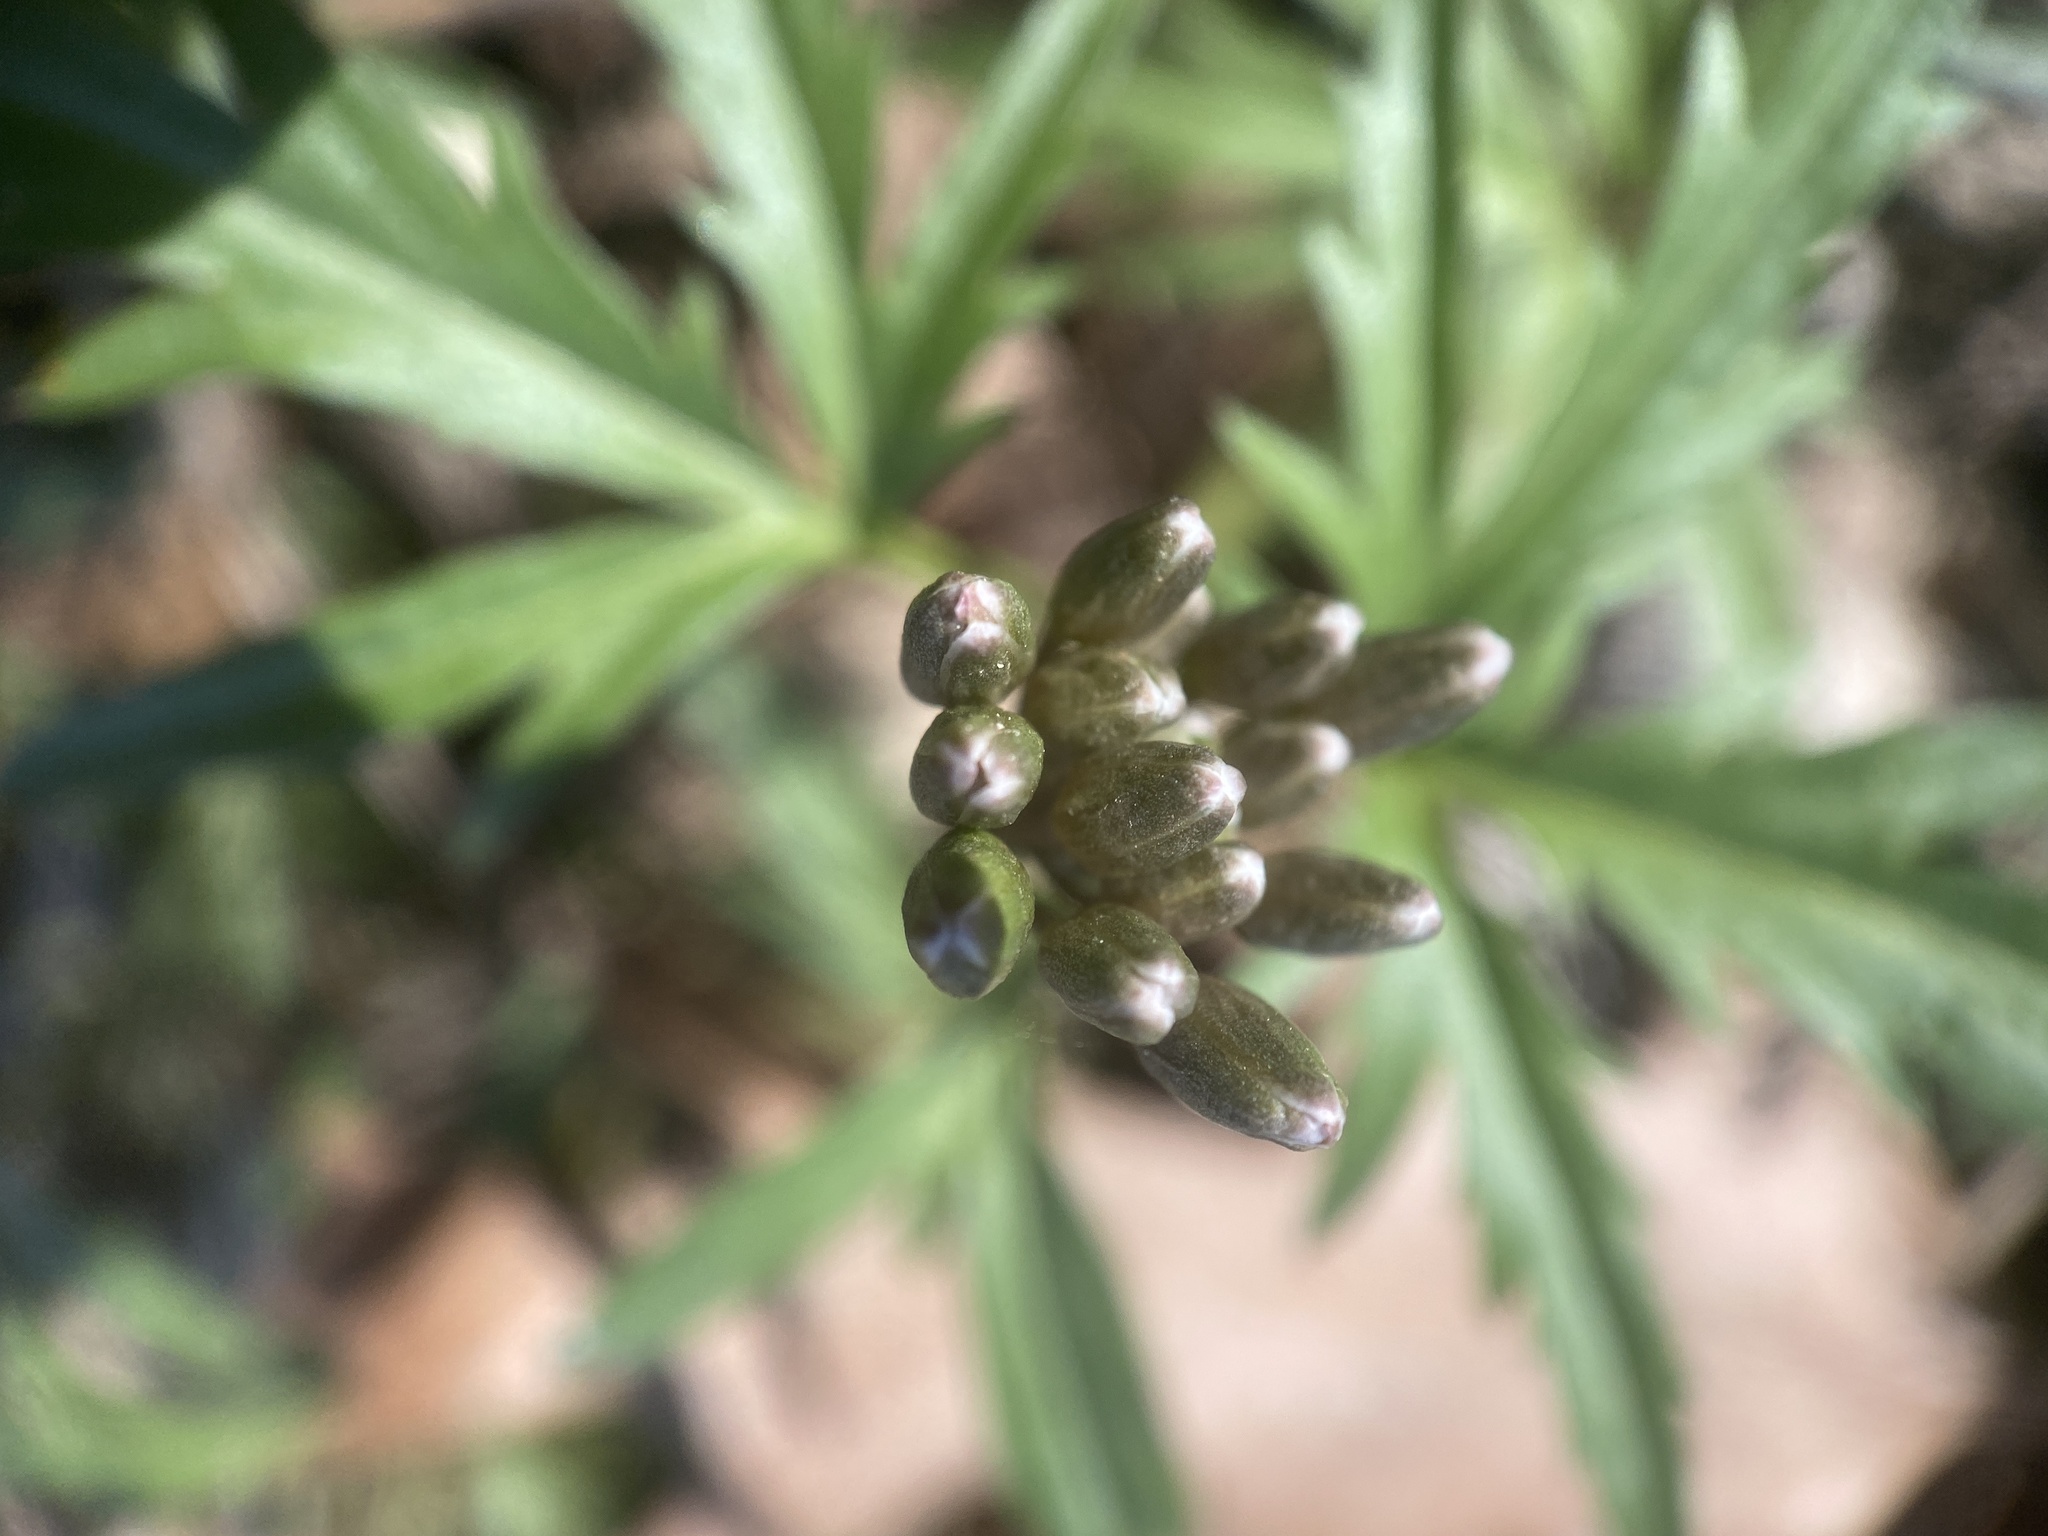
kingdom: Plantae
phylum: Tracheophyta
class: Magnoliopsida
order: Brassicales
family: Brassicaceae
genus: Cardamine
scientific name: Cardamine concatenata
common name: Cut-leaf toothcup
